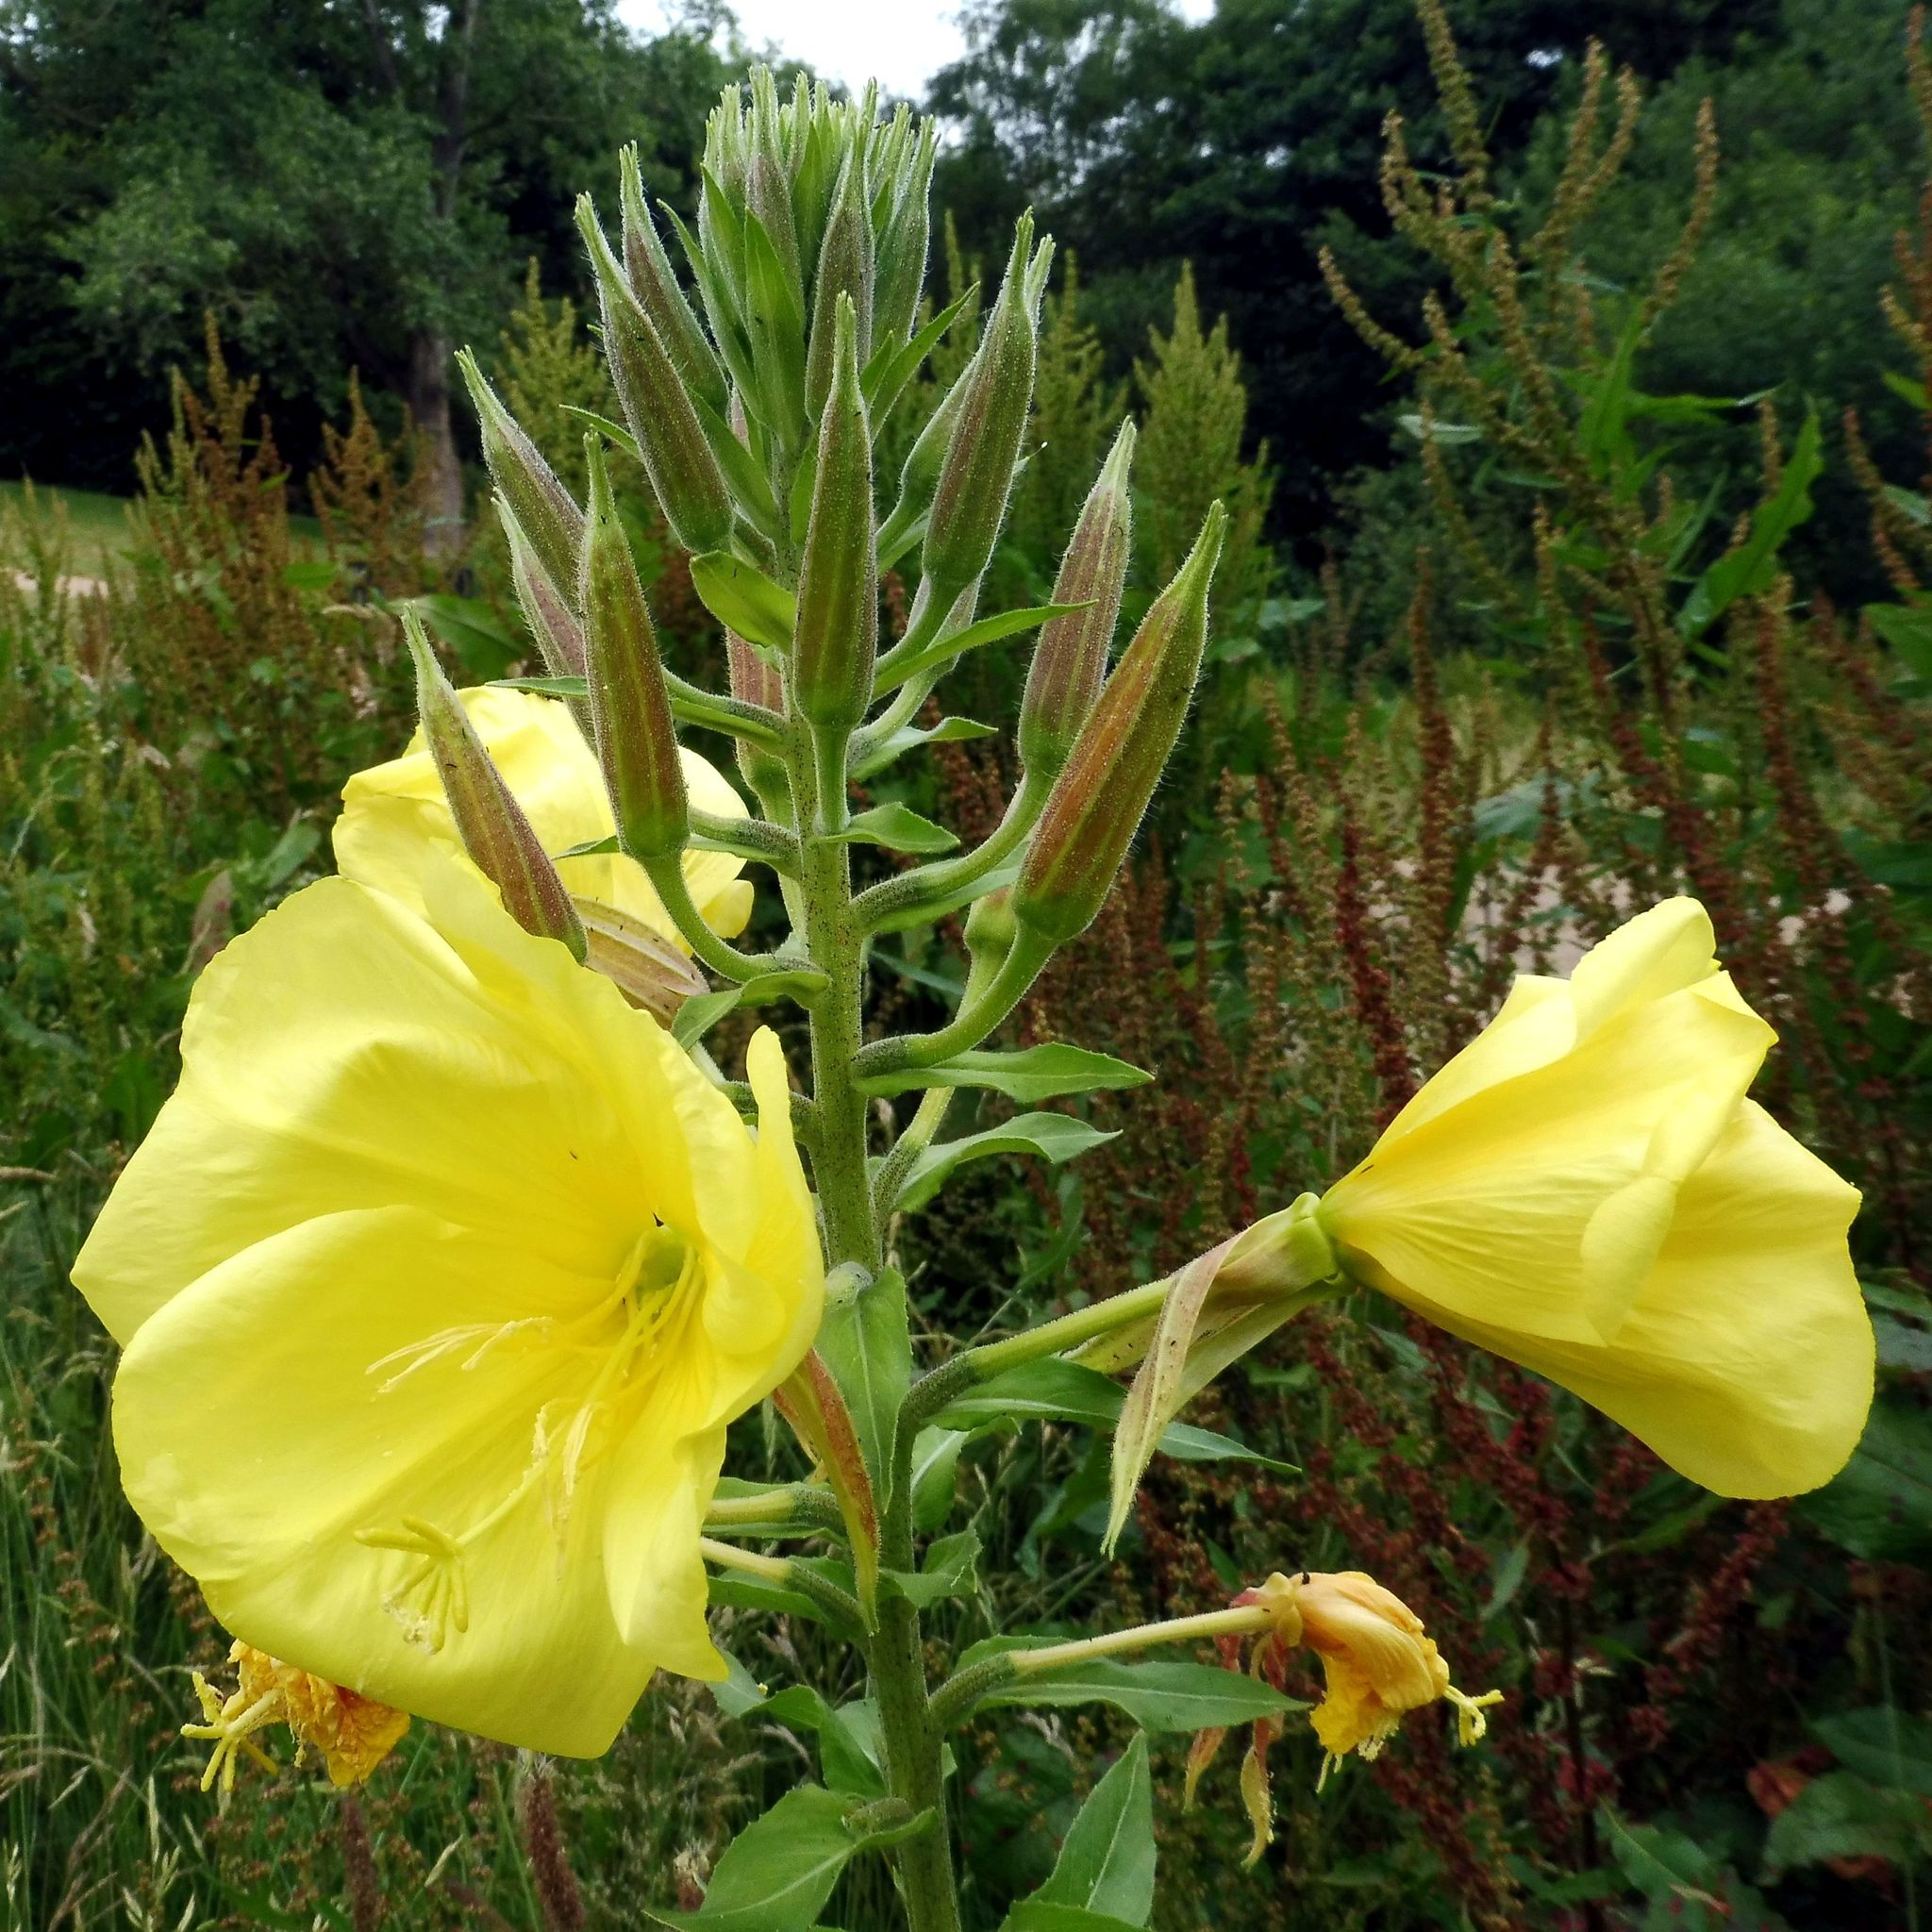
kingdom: Plantae
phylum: Tracheophyta
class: Magnoliopsida
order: Myrtales
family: Onagraceae
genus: Oenothera
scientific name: Oenothera glazioviana
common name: Large-flowered evening-primrose
